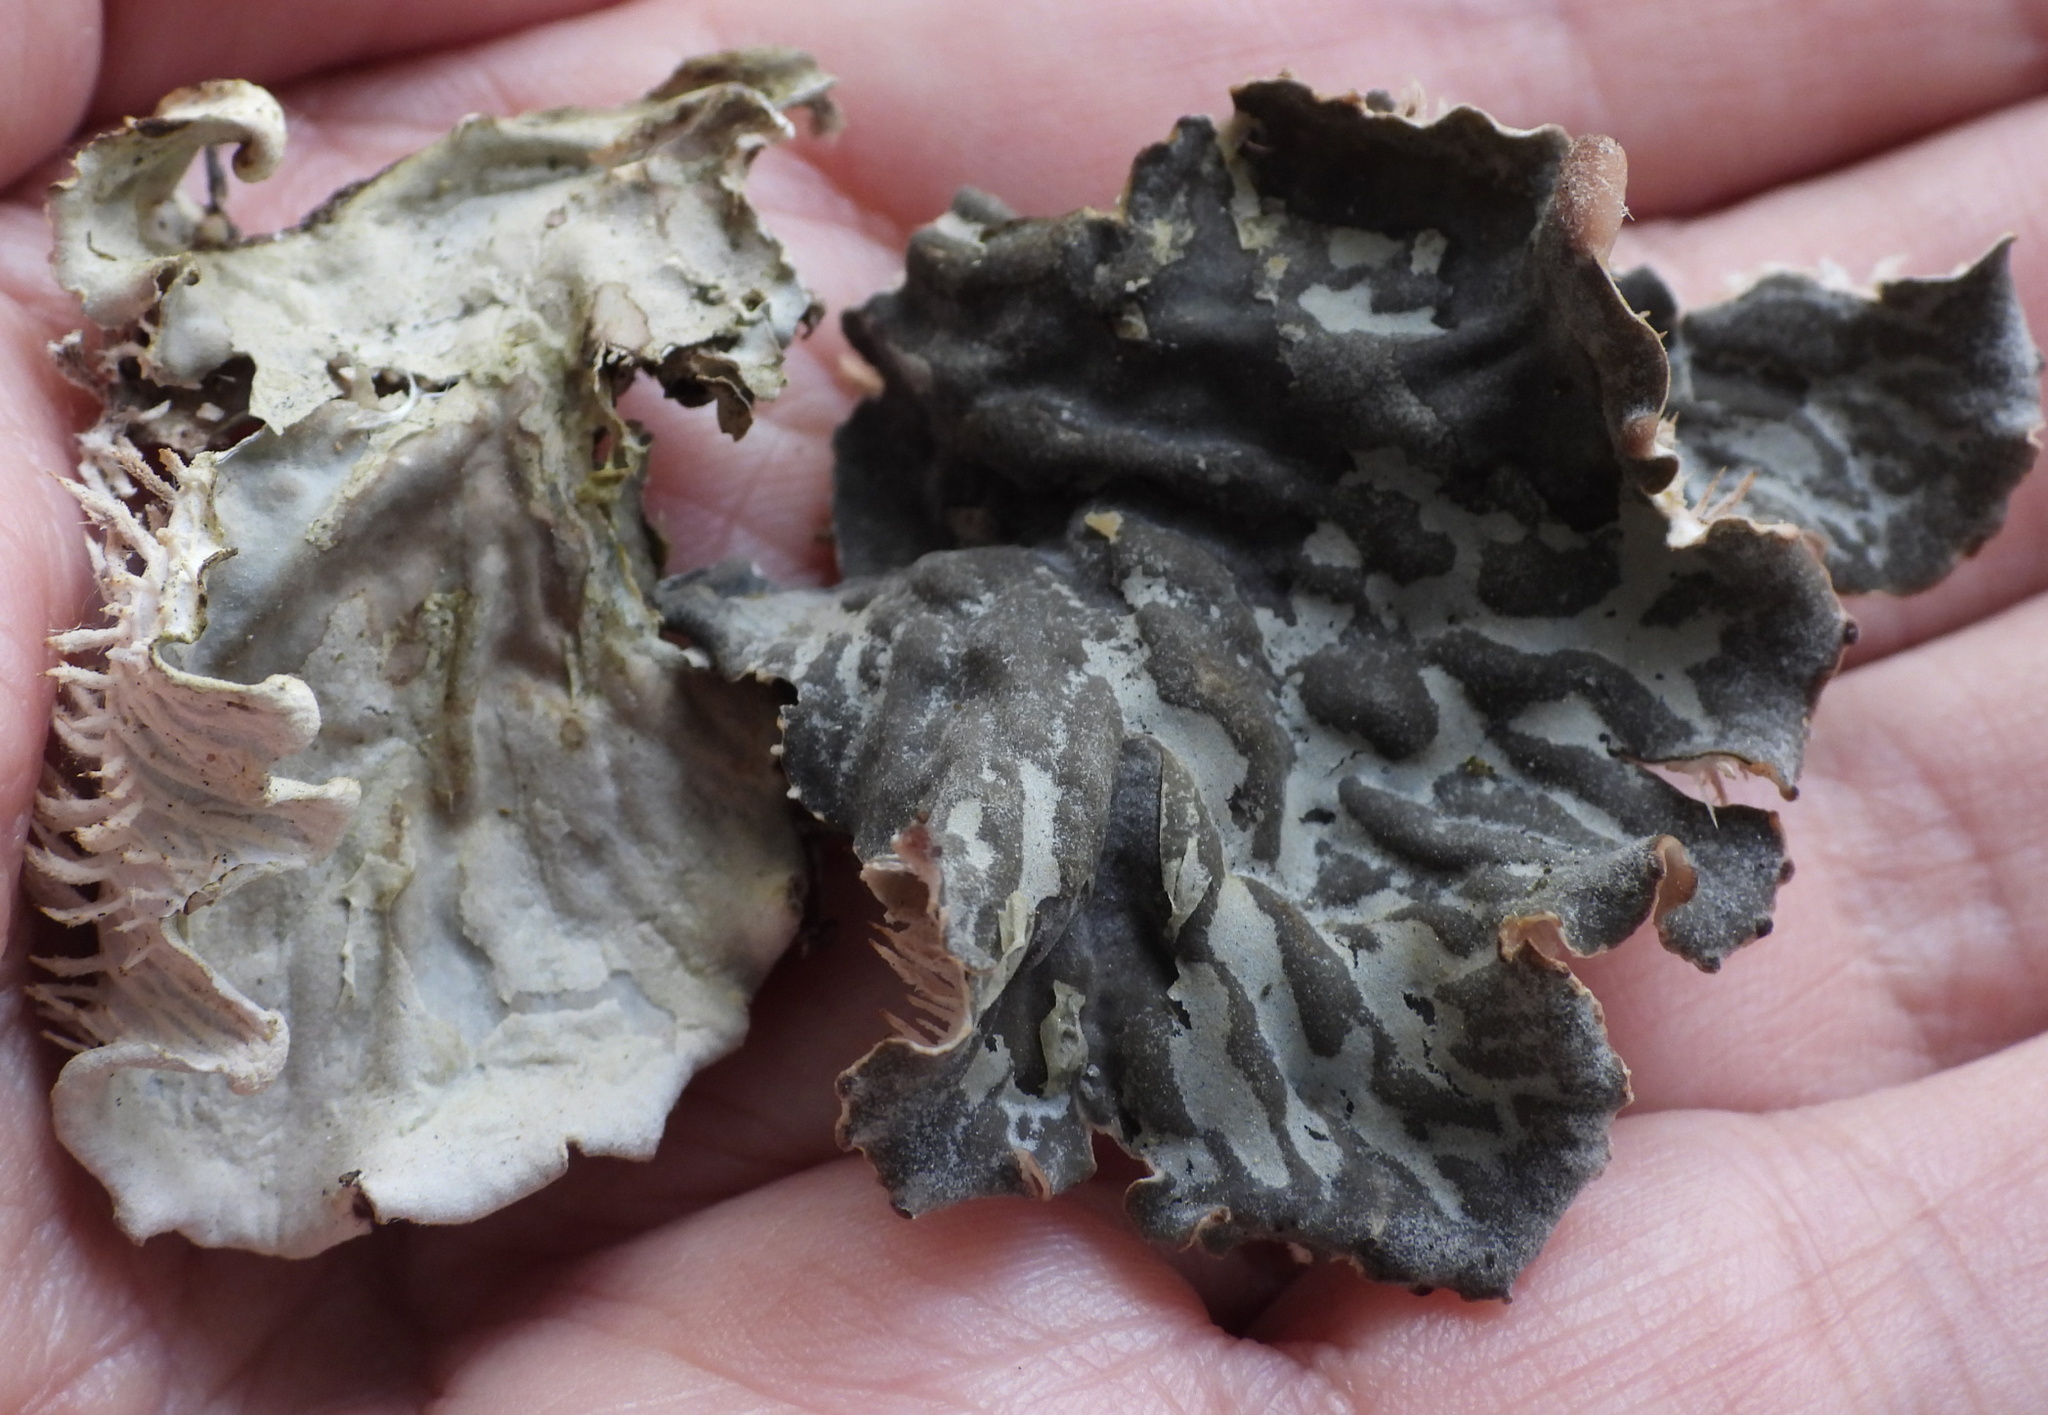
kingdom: Fungi
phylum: Ascomycota
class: Lecanoromycetes
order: Peltigerales
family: Peltigeraceae
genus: Peltigera
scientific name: Peltigera membranacea
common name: Membranous pelt lichen
